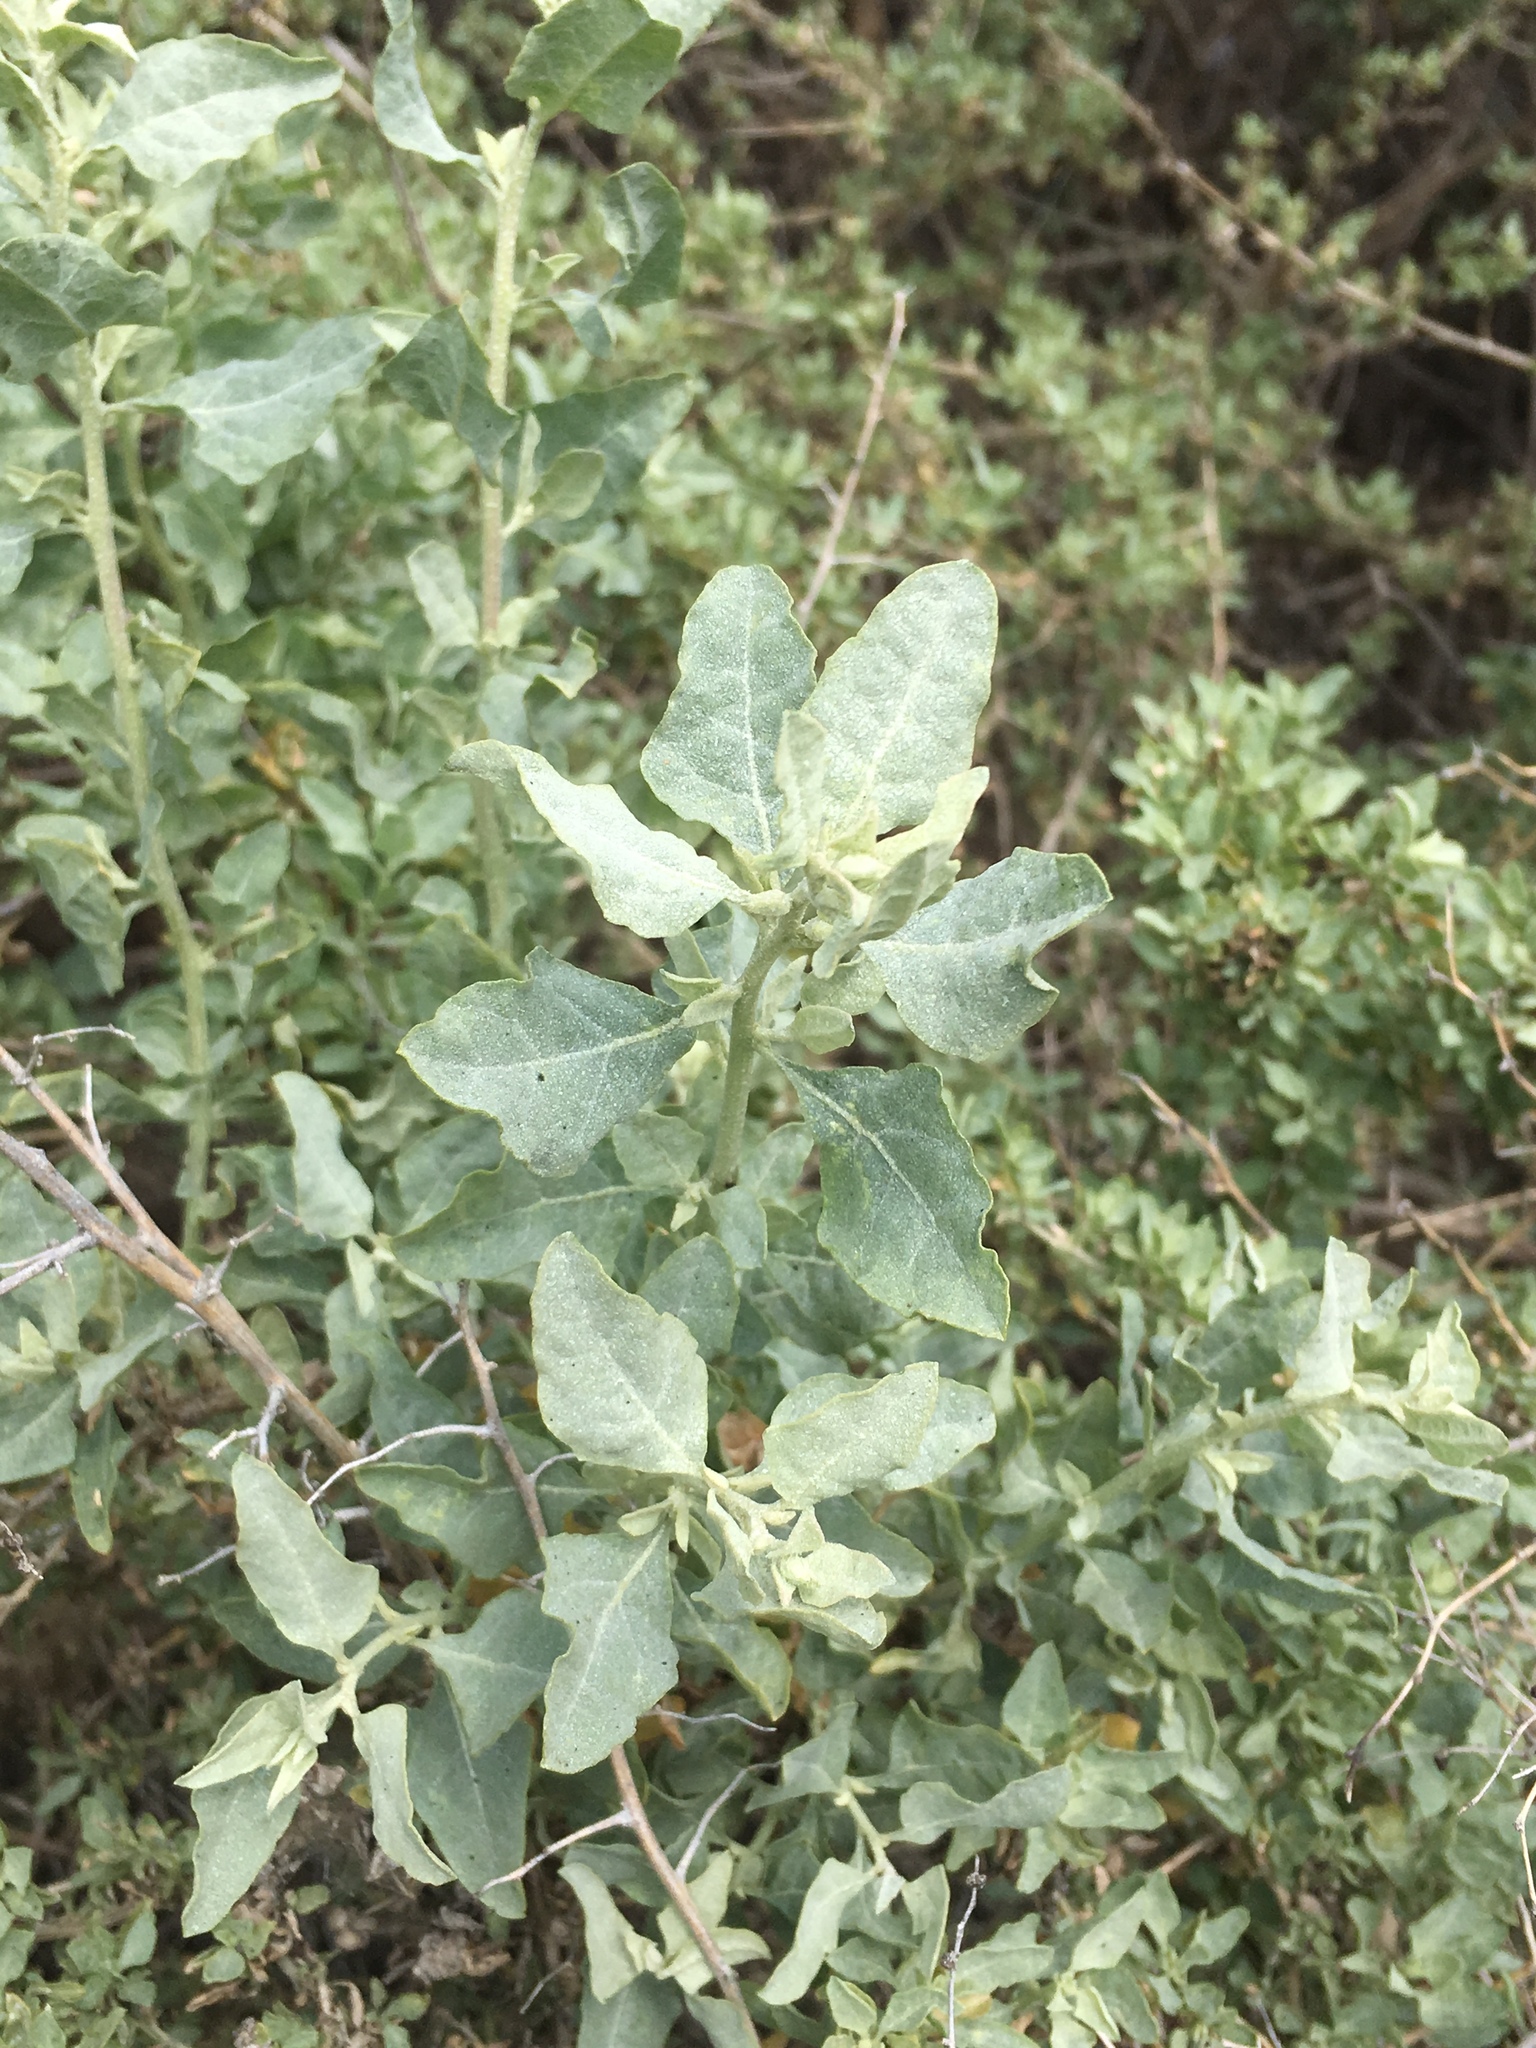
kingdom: Plantae
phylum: Tracheophyta
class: Magnoliopsida
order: Caryophyllales
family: Amaranthaceae
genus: Atriplex
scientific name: Atriplex lentiformis
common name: Big saltbush
